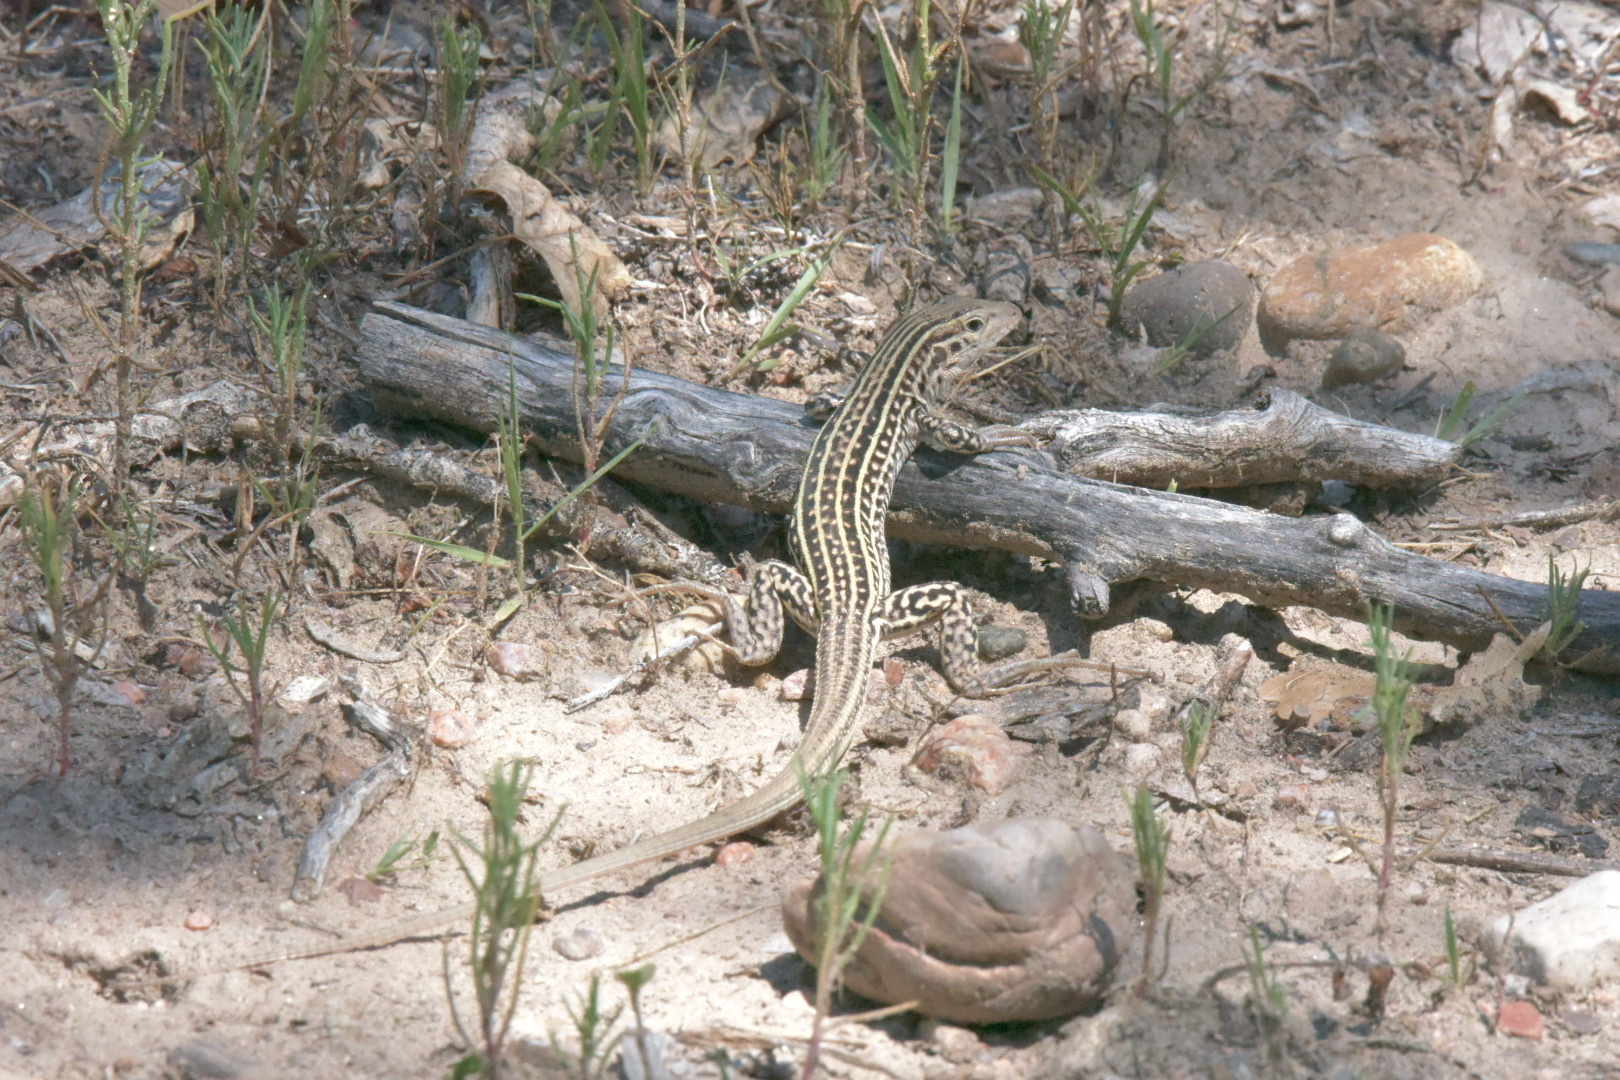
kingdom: Animalia
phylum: Chordata
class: Squamata
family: Teiidae
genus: Aspidoscelis
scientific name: Aspidoscelis neotesselatus
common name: Colorado checkered whiptail
